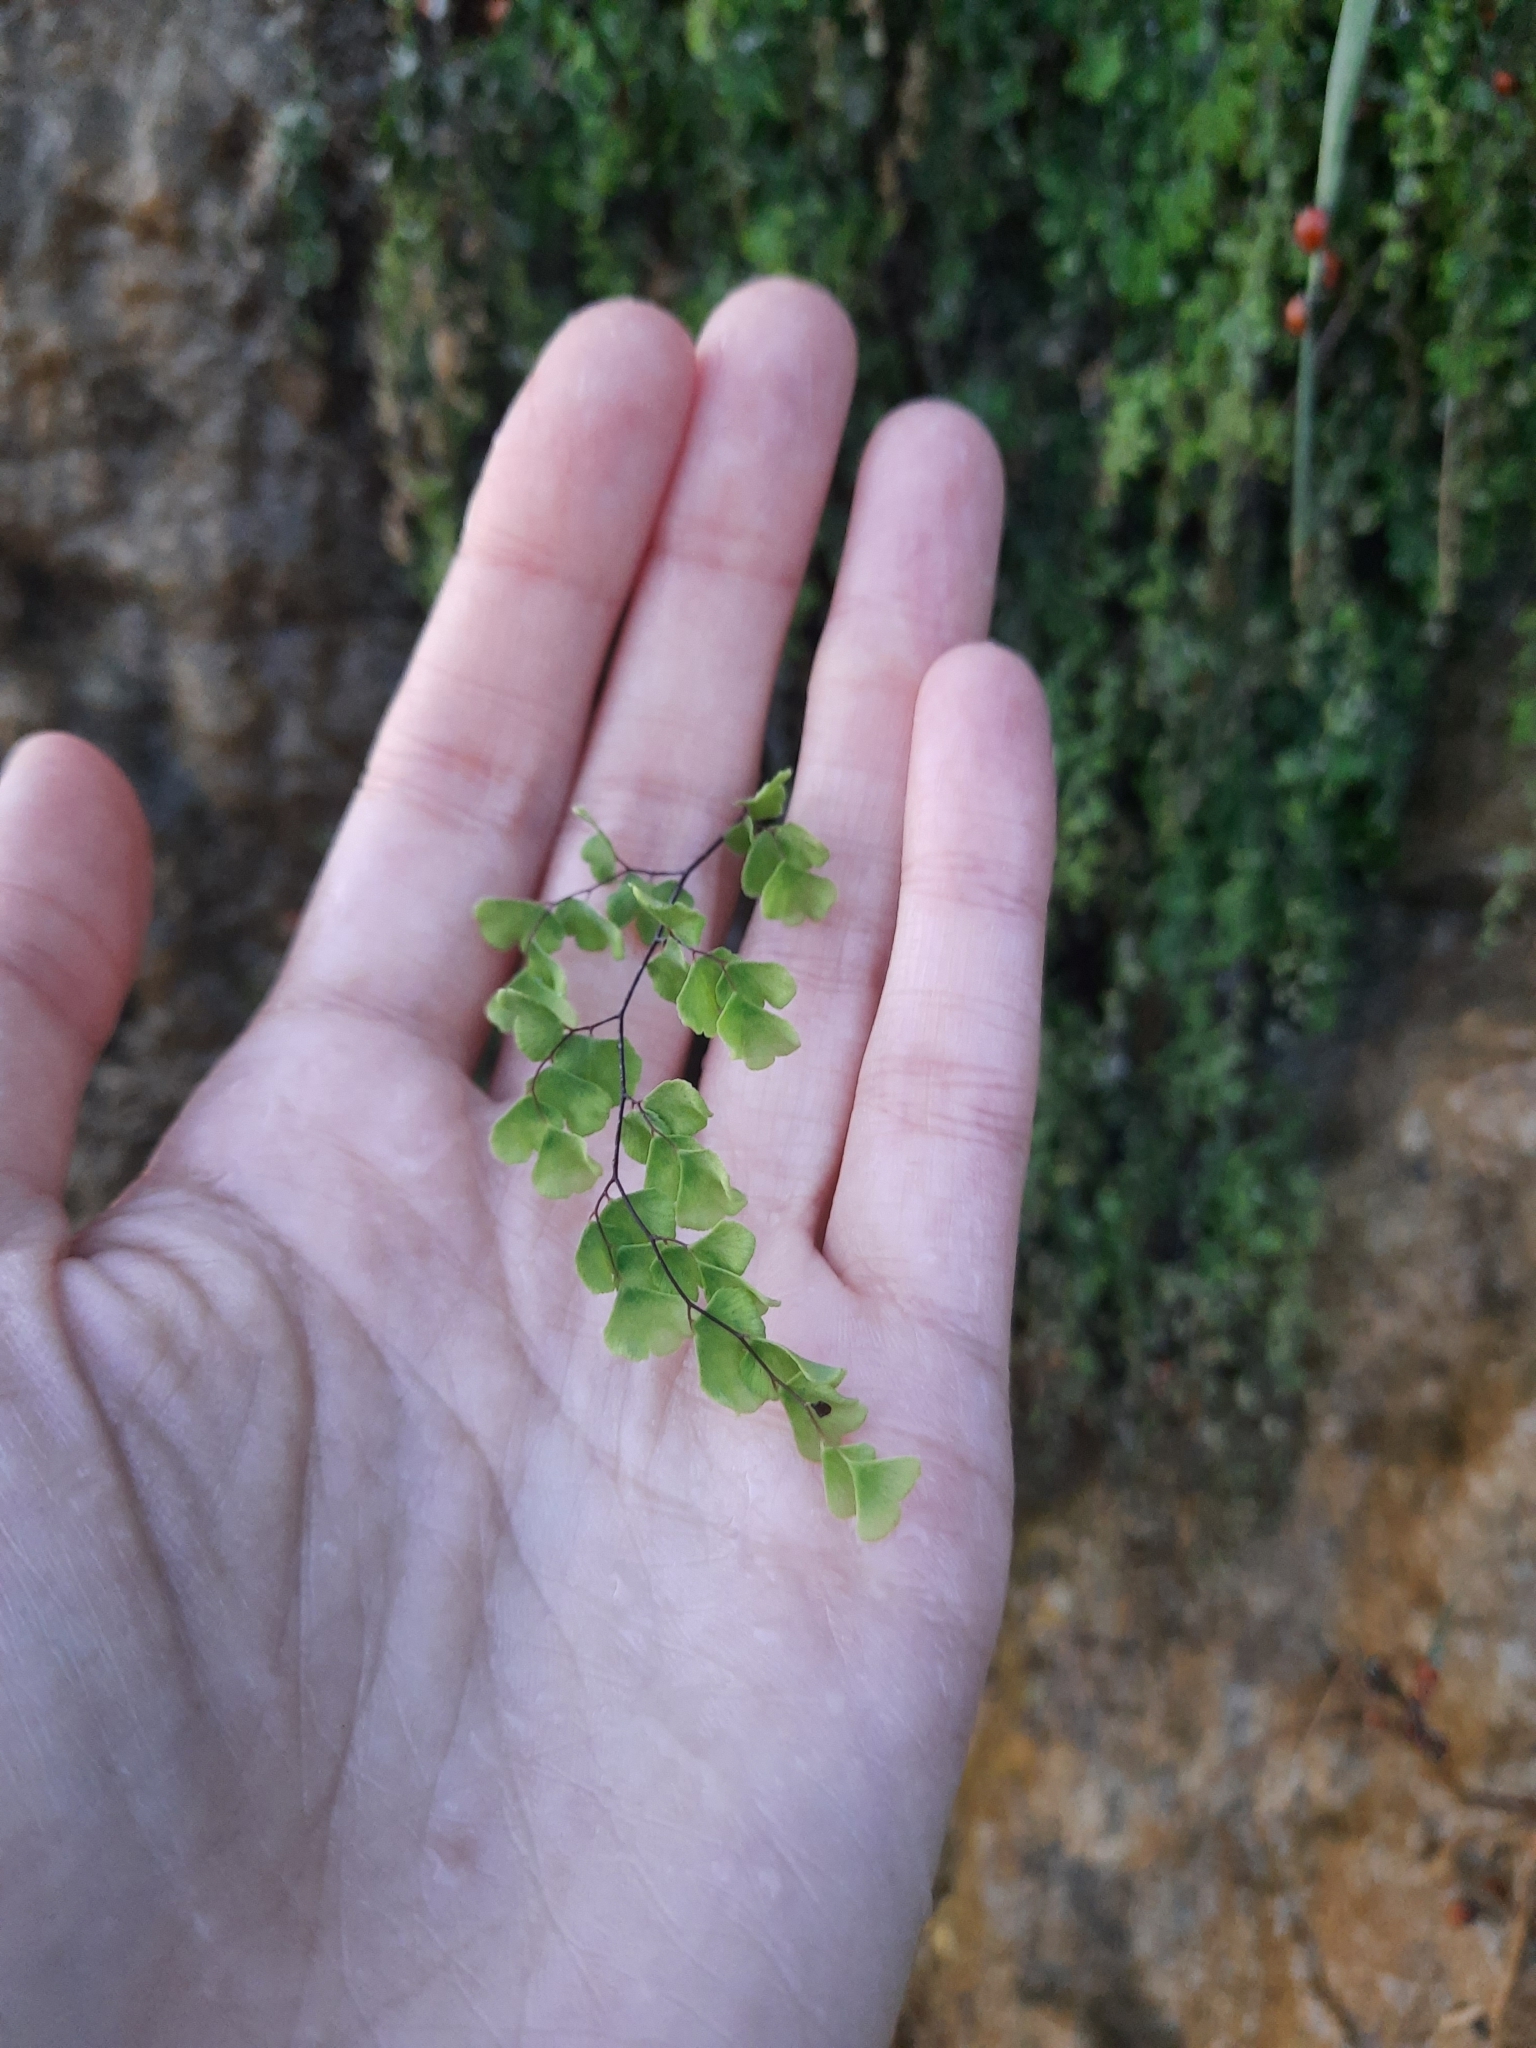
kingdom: Plantae
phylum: Tracheophyta
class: Polypodiopsida
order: Polypodiales
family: Pteridaceae
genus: Adiantum
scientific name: Adiantum capillus-veneris
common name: Maidenhair fern
